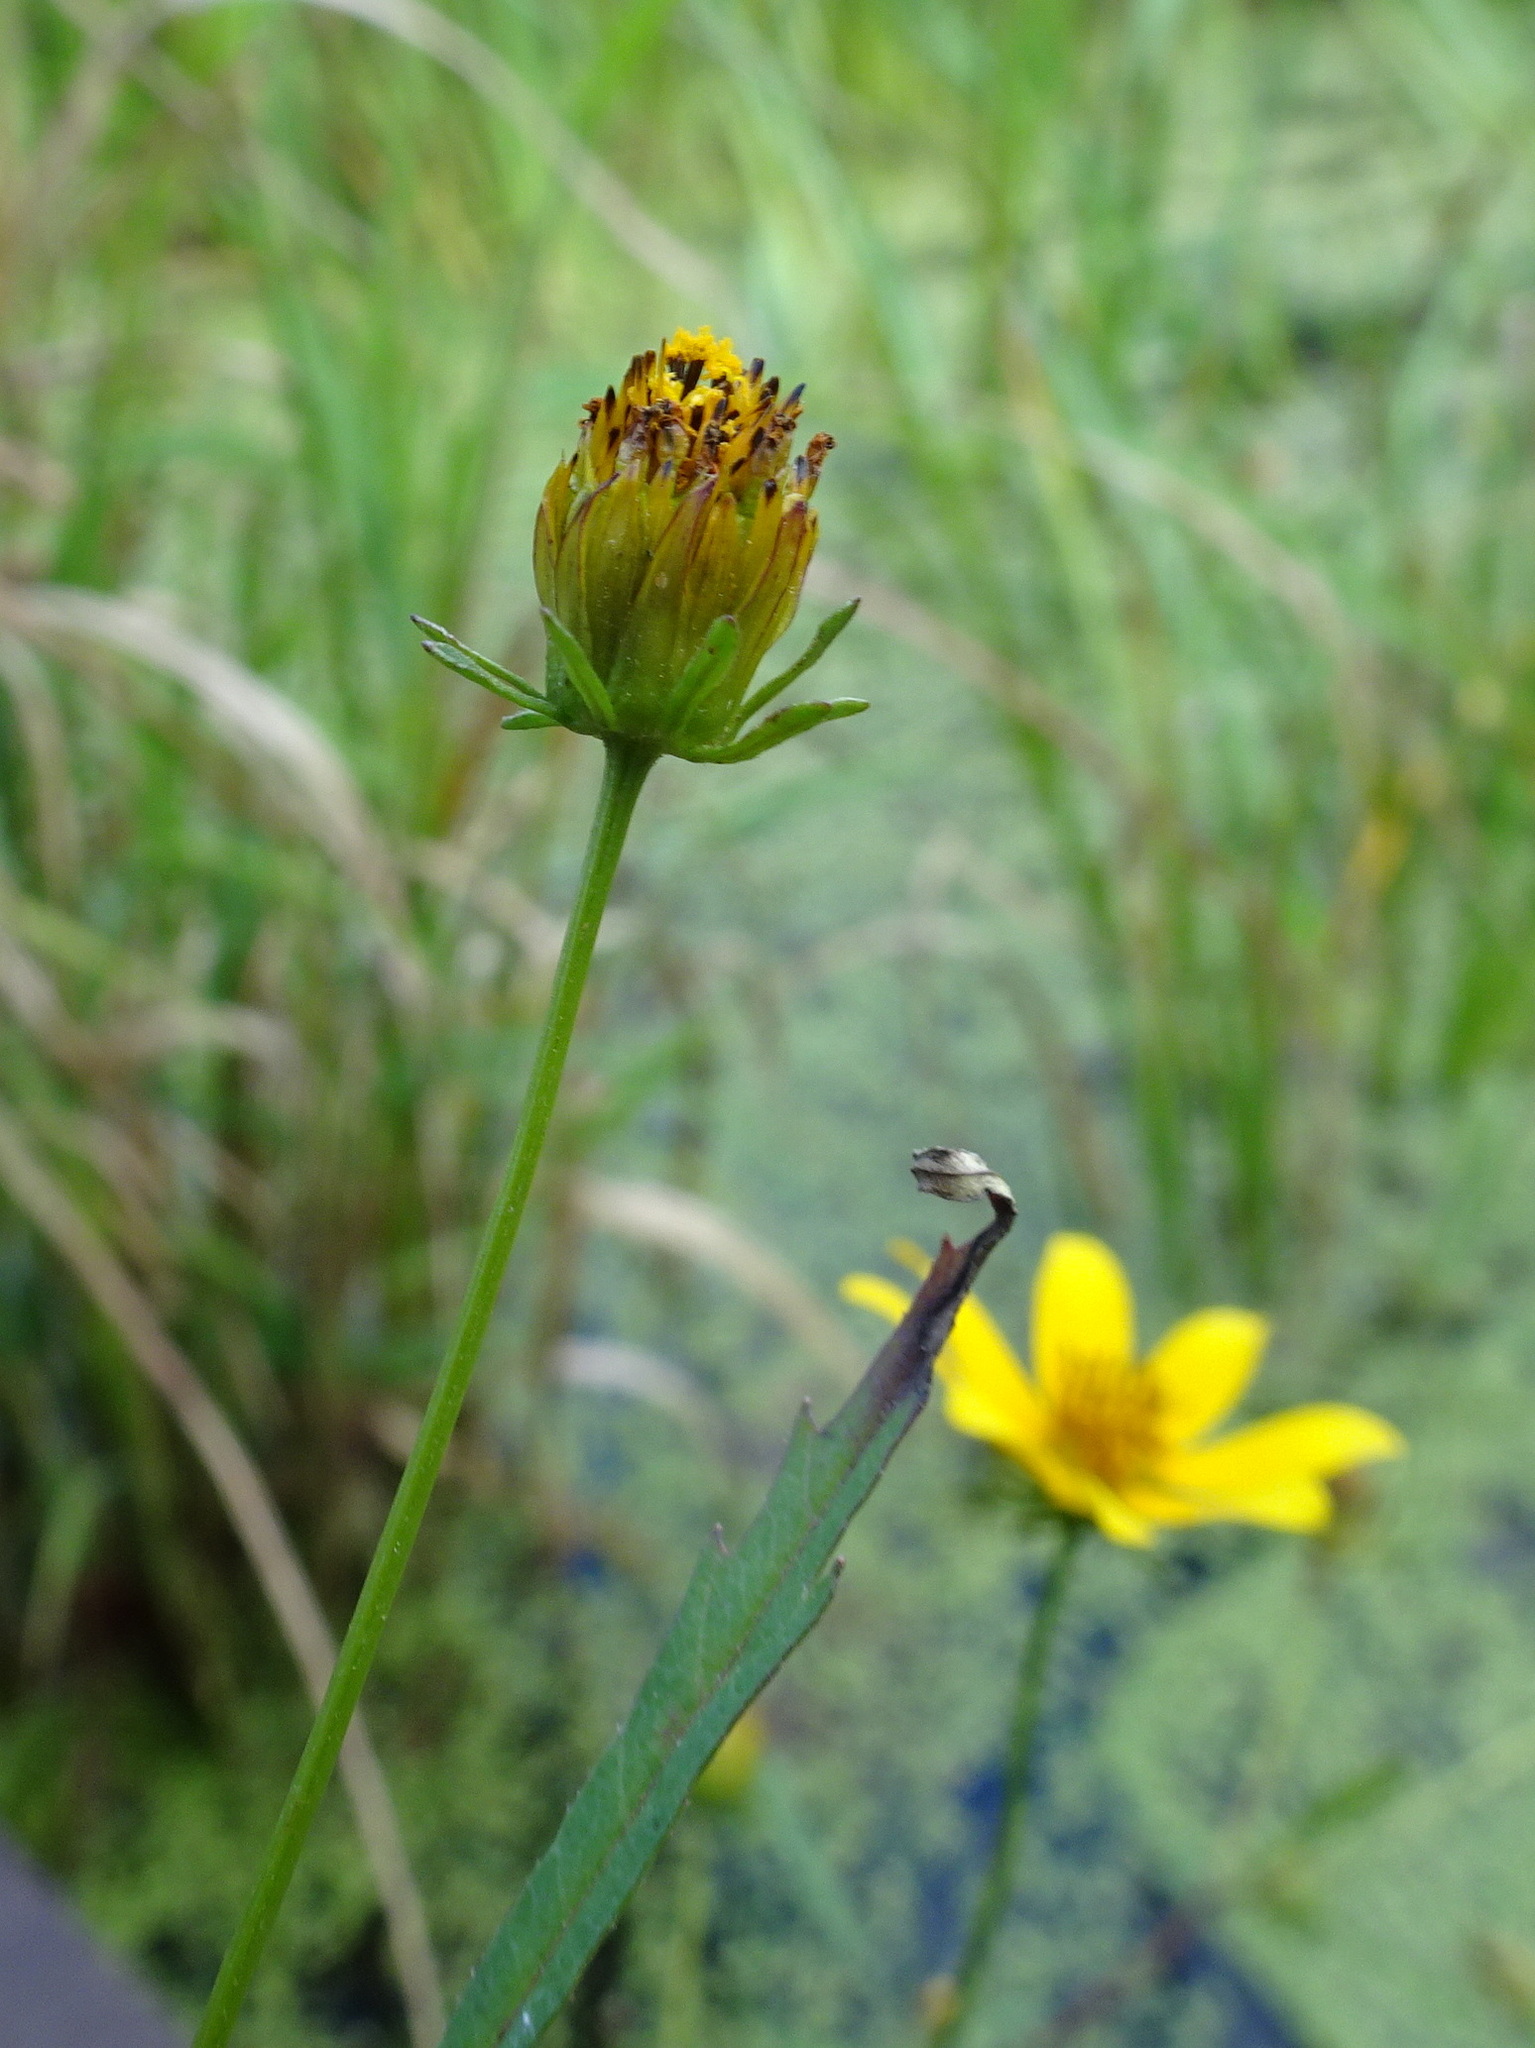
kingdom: Plantae
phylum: Tracheophyta
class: Magnoliopsida
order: Asterales
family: Asteraceae
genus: Bidens
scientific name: Bidens trichosperma
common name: Crowned beggarticks
